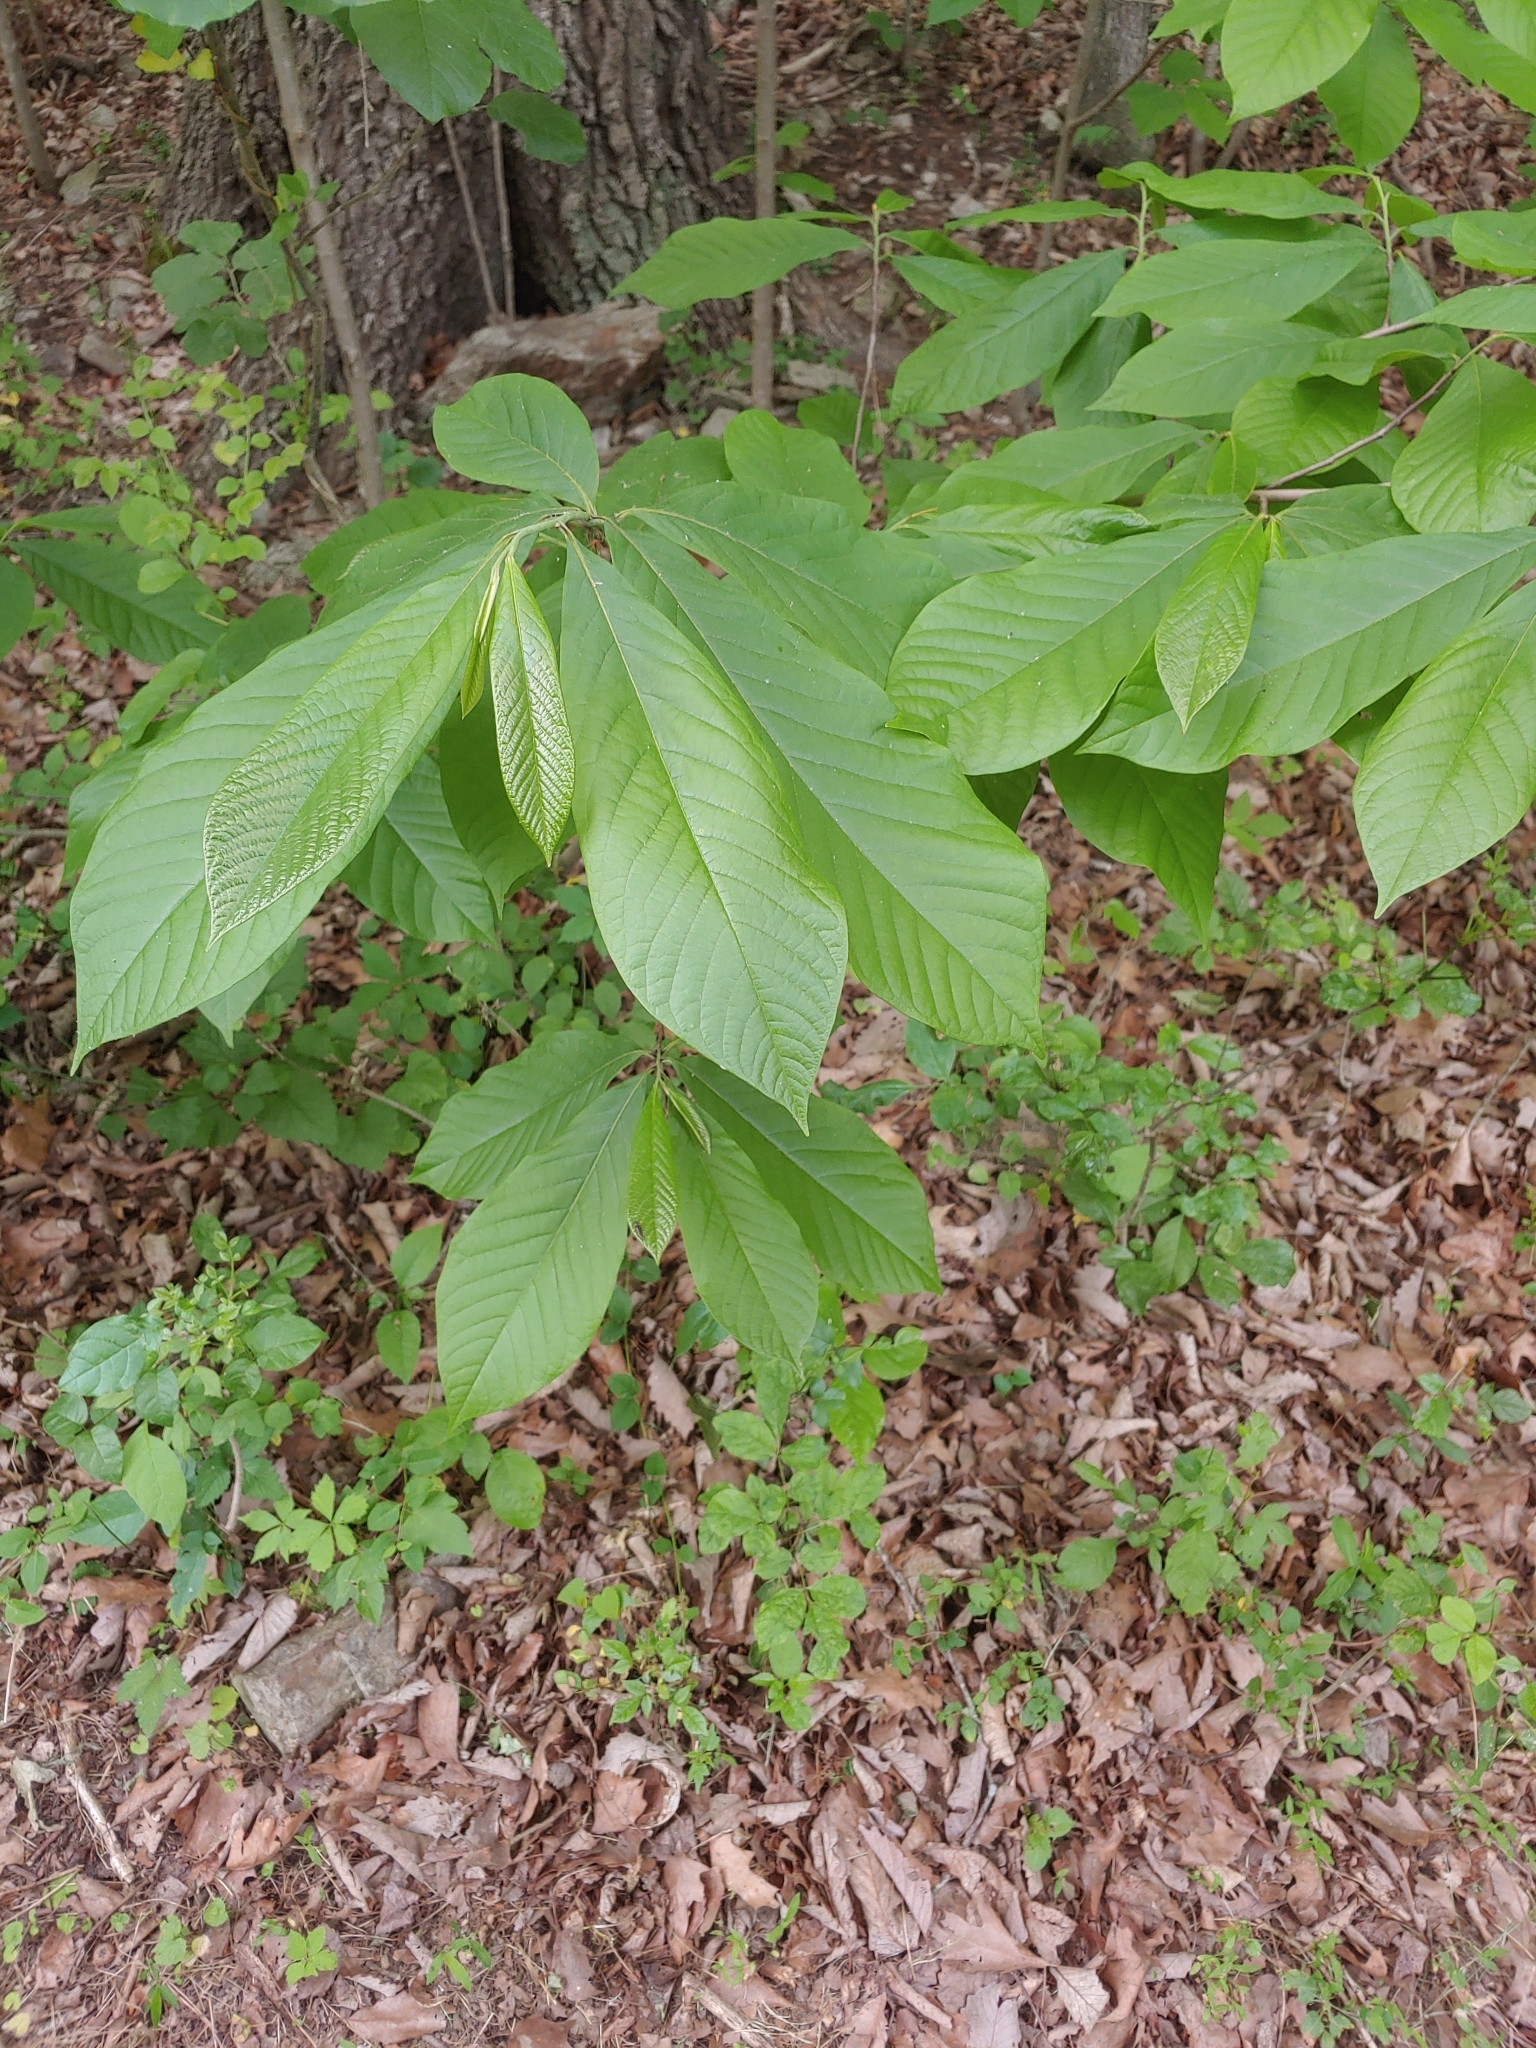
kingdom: Plantae
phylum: Tracheophyta
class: Magnoliopsida
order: Magnoliales
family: Annonaceae
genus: Asimina
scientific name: Asimina triloba
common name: Dog-banana
